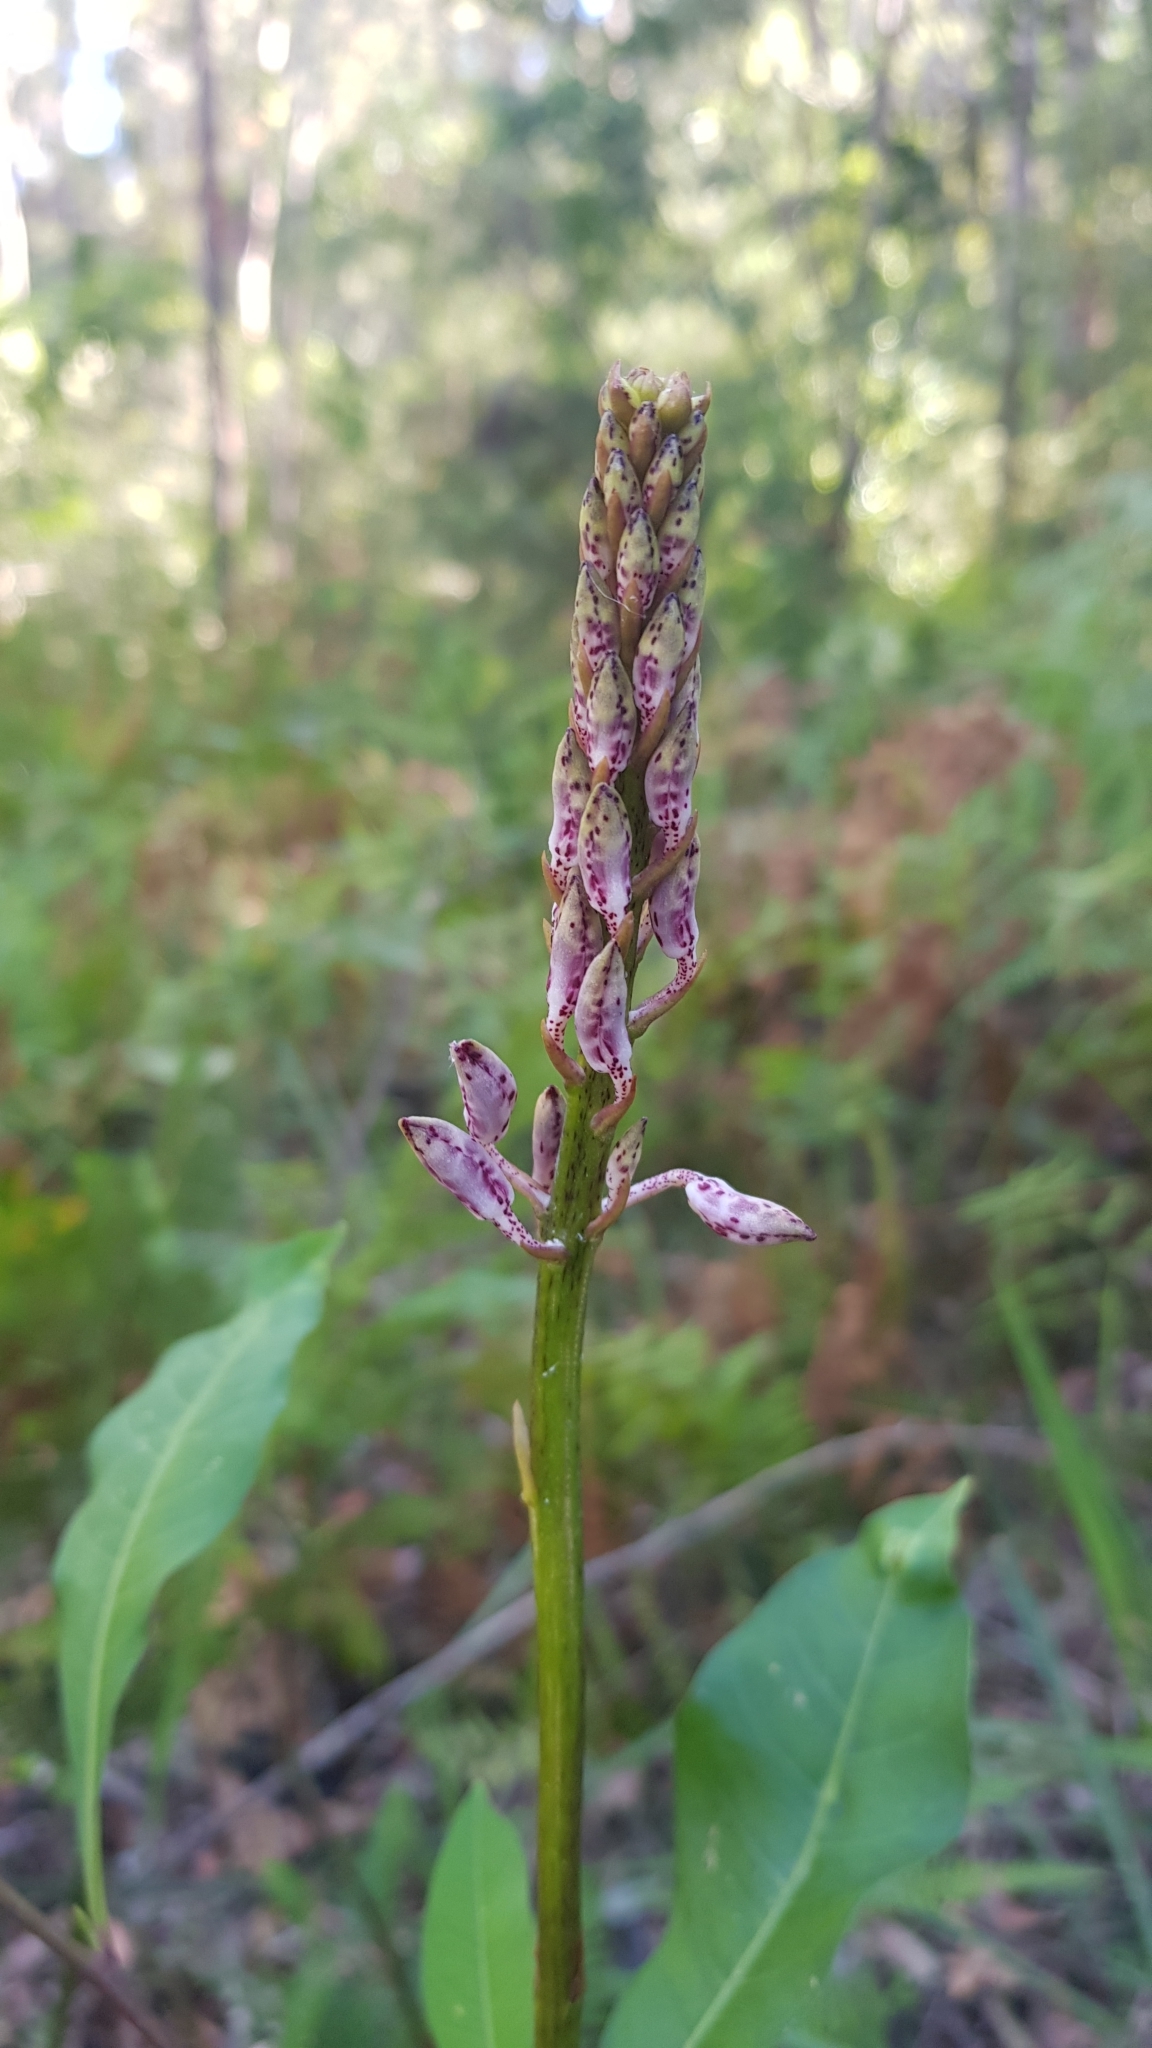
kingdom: Plantae
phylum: Tracheophyta
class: Liliopsida
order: Asparagales
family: Orchidaceae
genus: Dipodium
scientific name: Dipodium variegatum
